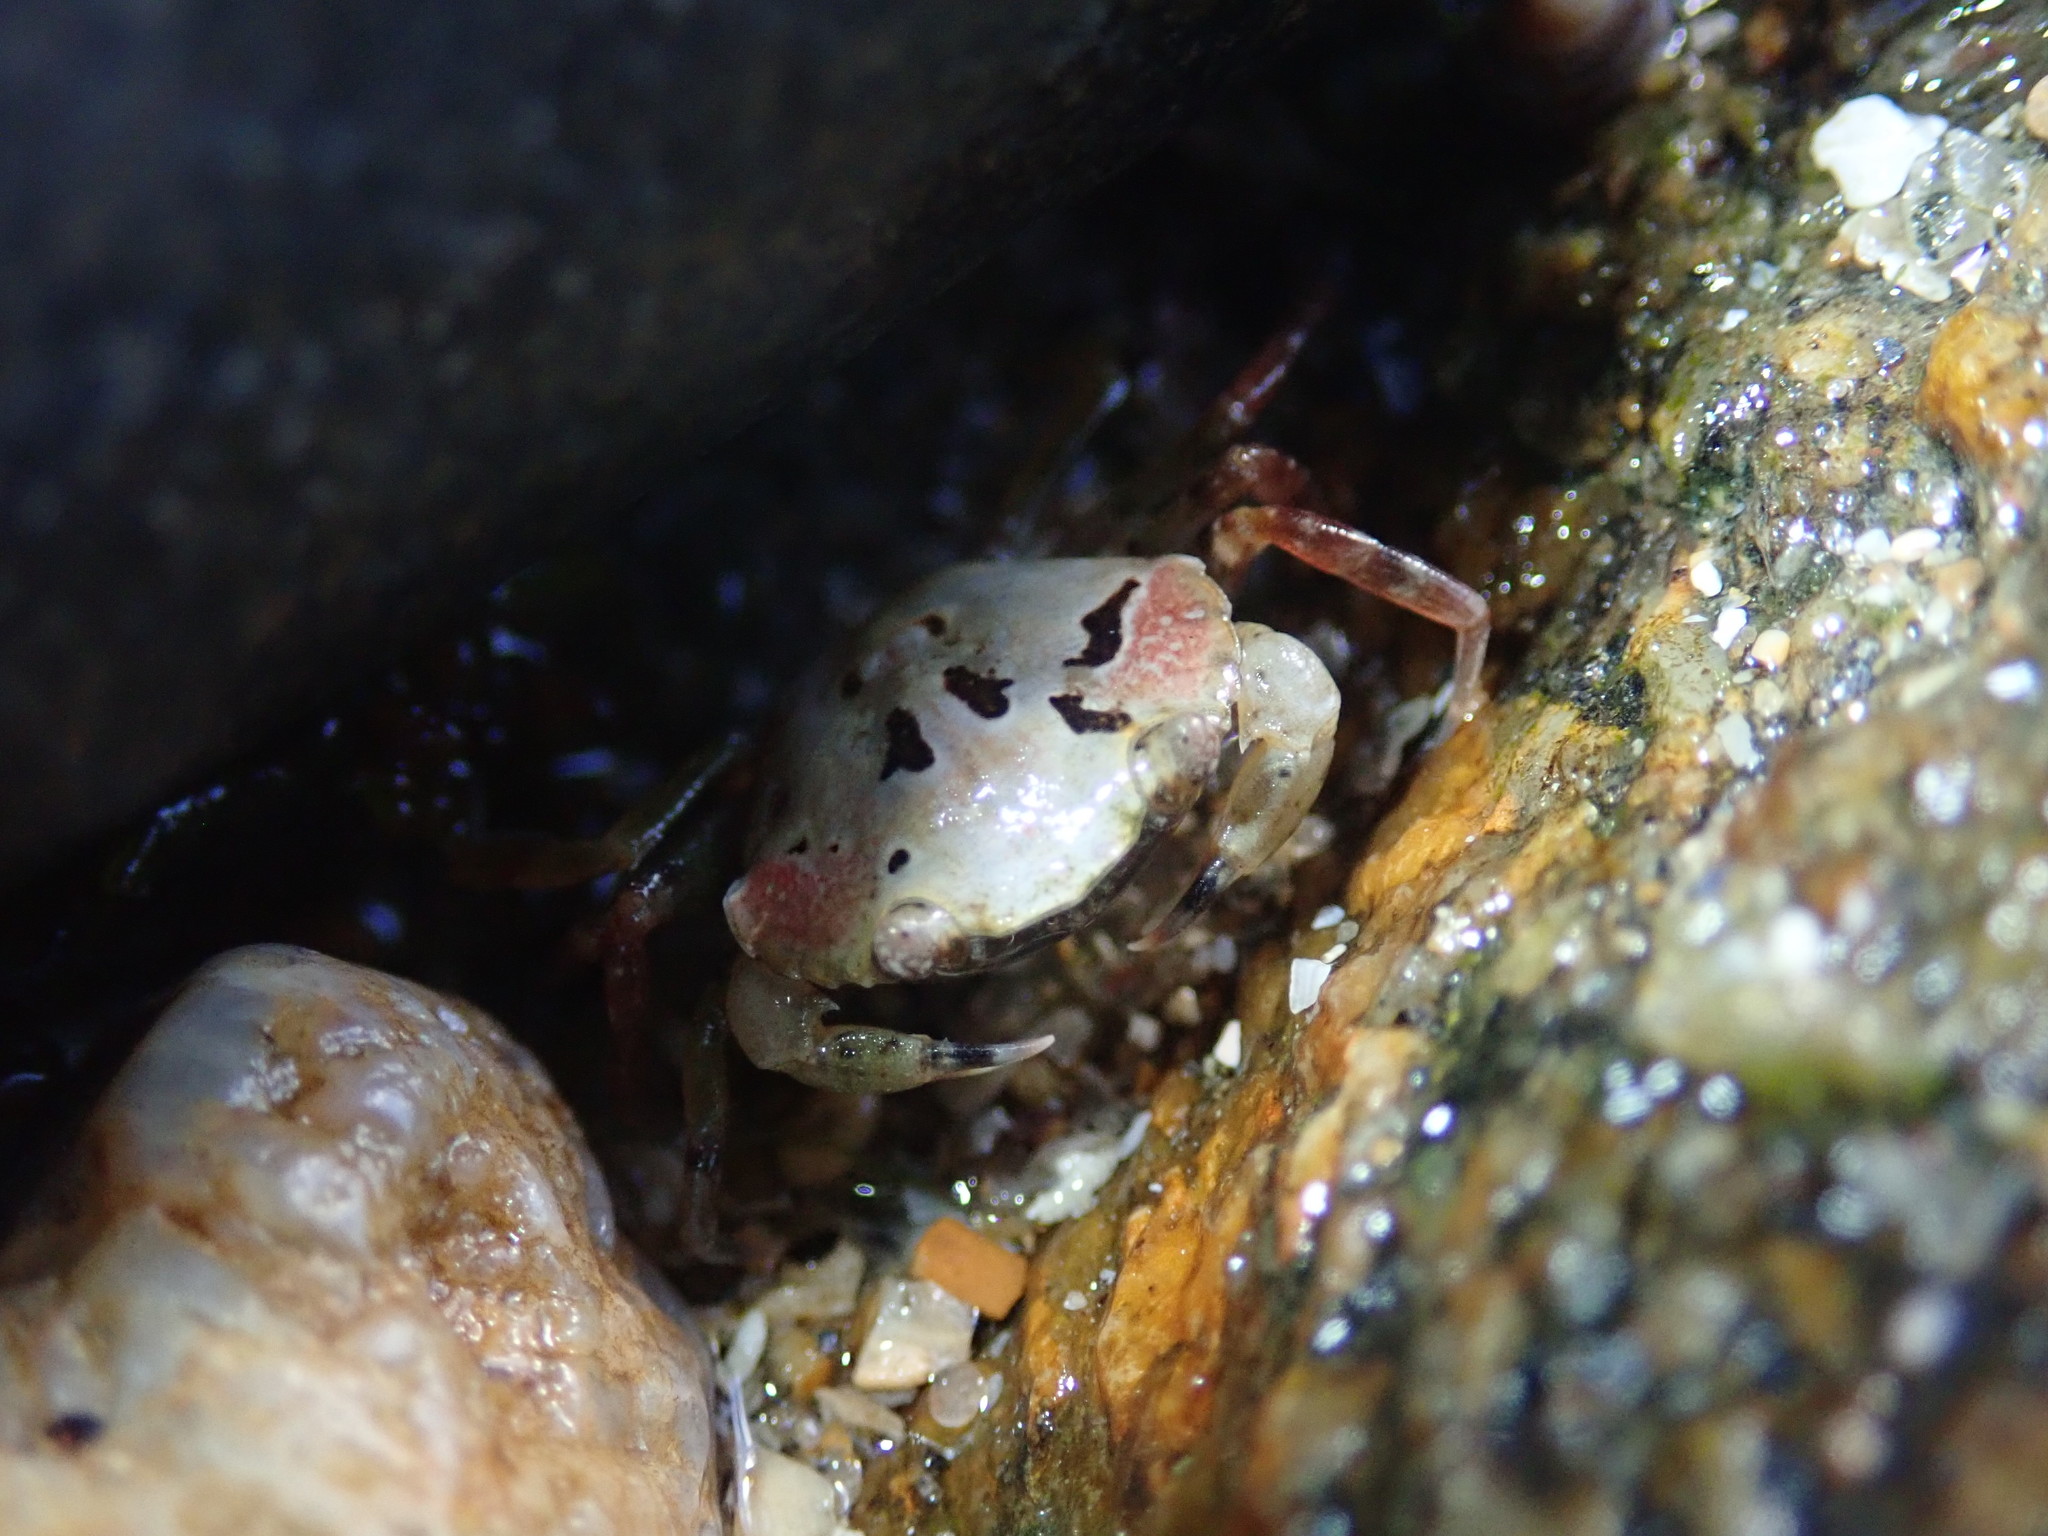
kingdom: Animalia
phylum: Arthropoda
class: Malacostraca
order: Decapoda
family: Carcinidae
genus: Carcinus
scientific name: Carcinus maenas
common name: European green crab
